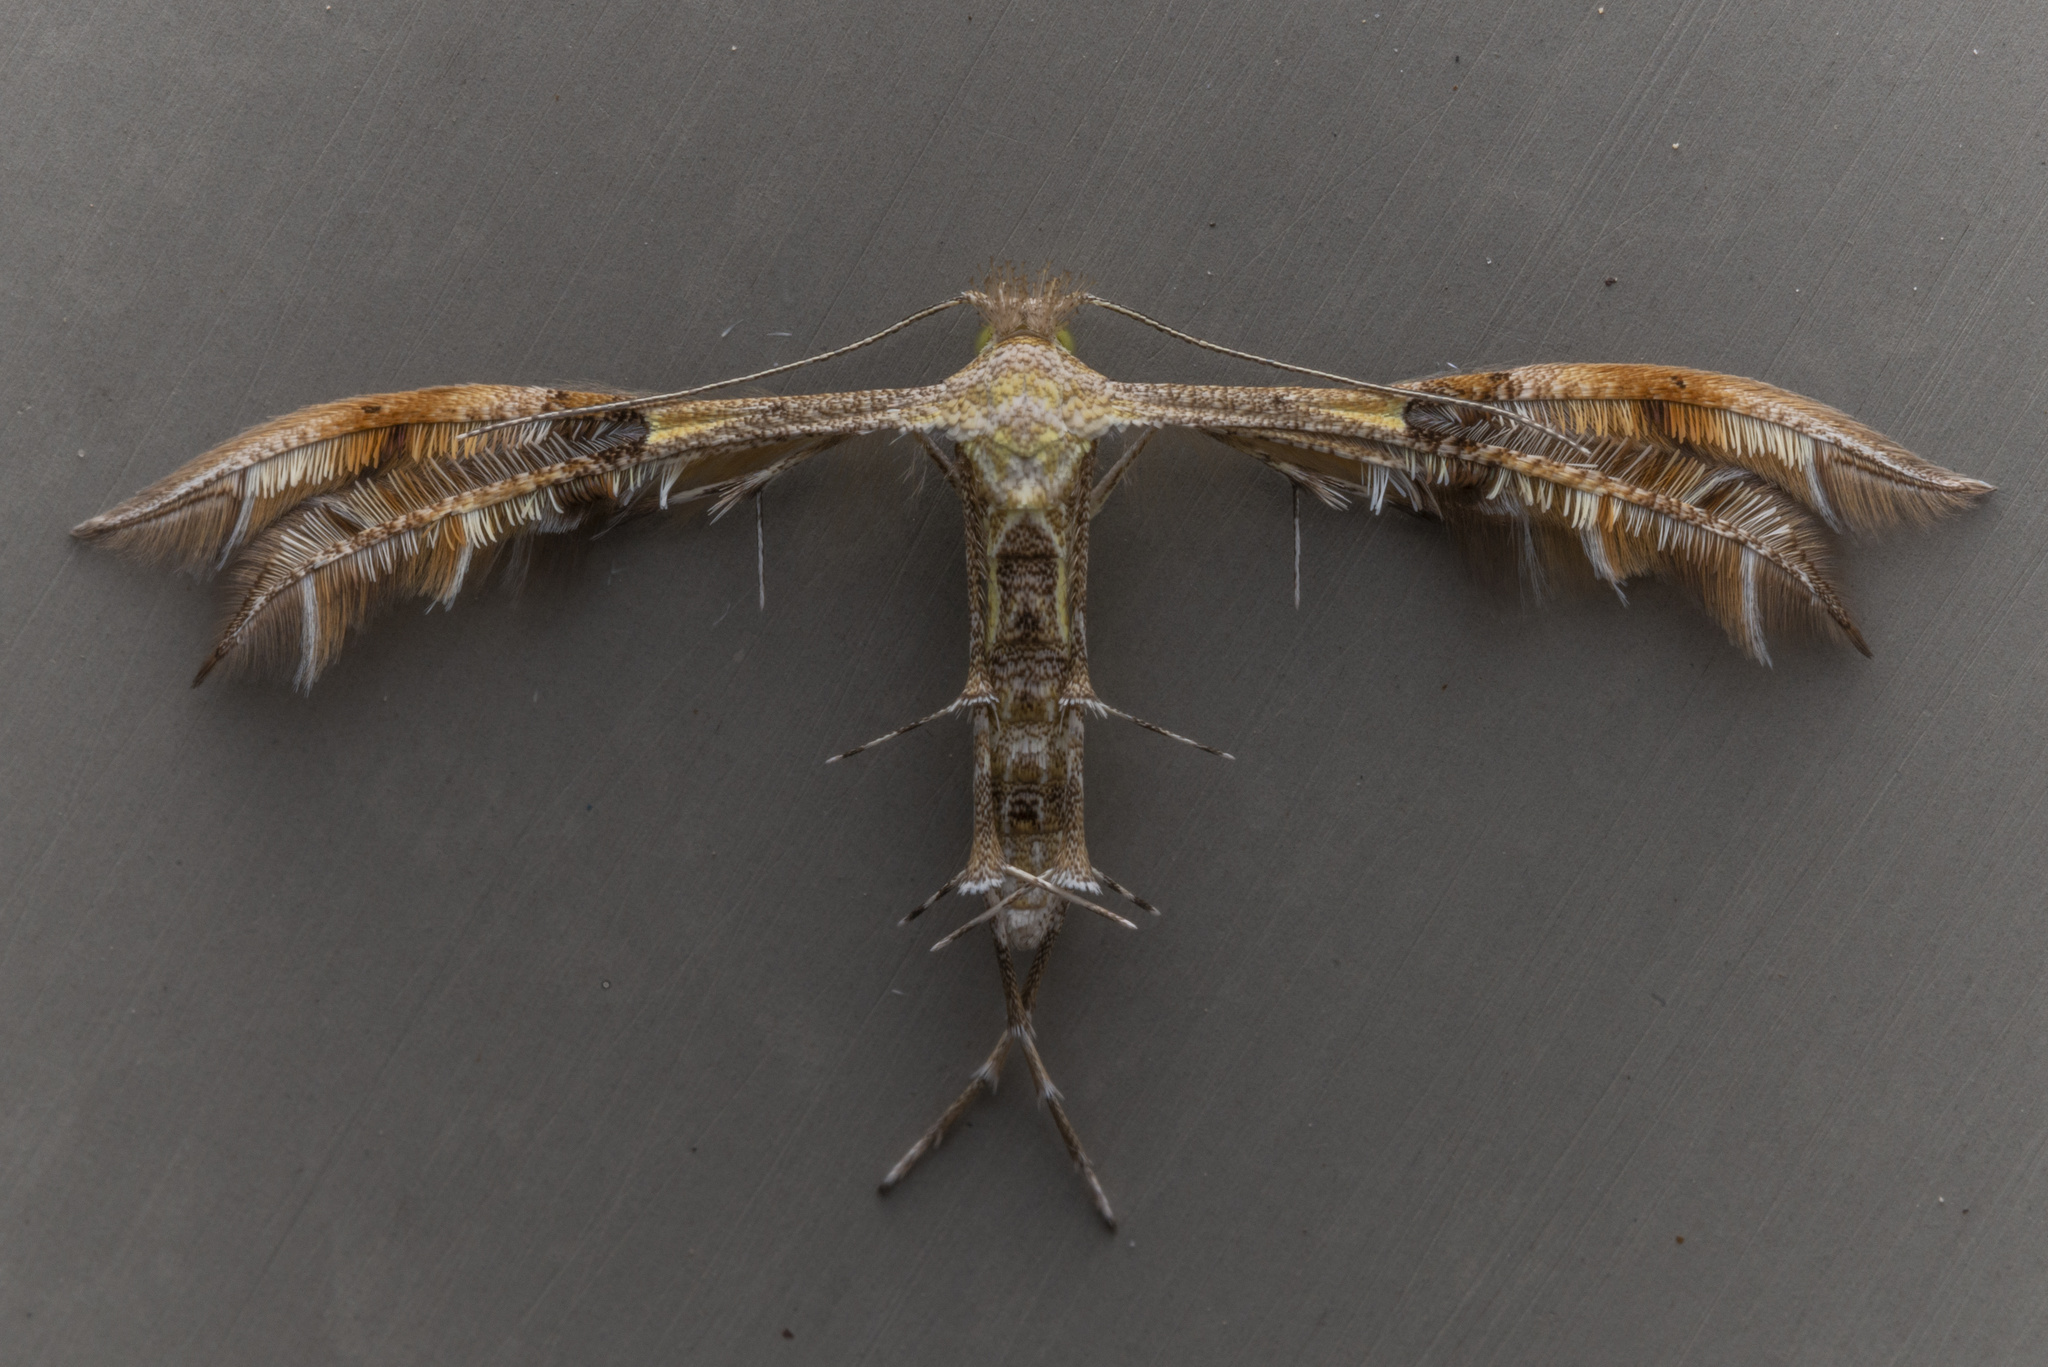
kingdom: Animalia
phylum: Arthropoda
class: Insecta
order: Lepidoptera
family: Pterophoridae
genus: Diacrotricha
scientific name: Diacrotricha fasciola
